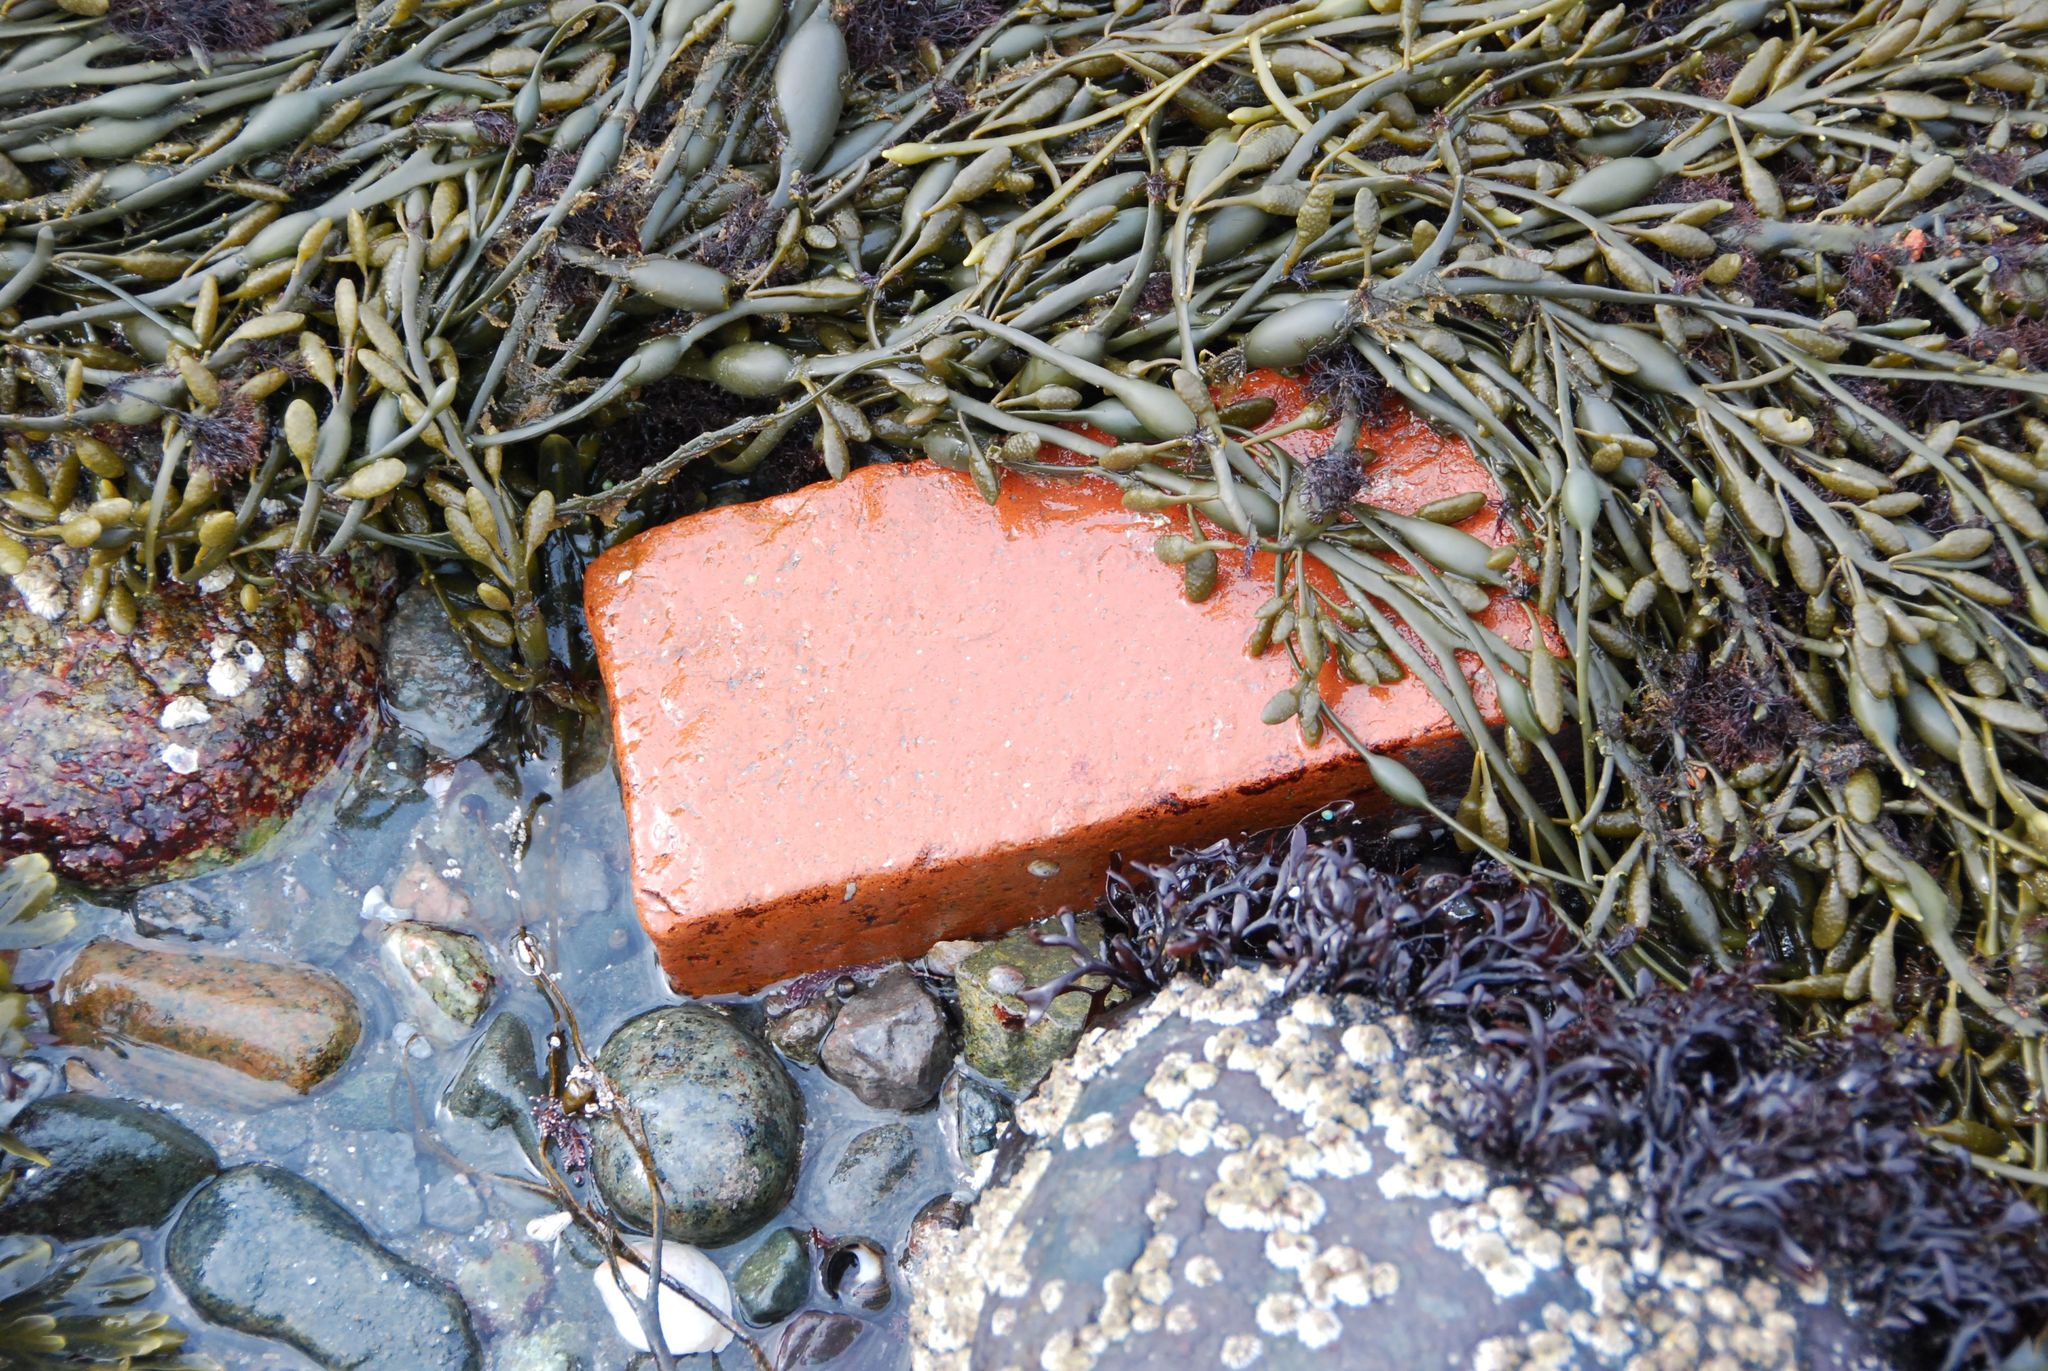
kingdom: Plantae
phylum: Rhodophyta
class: Florideophyceae
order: Gigartinales
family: Gigartinaceae
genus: Chondrus
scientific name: Chondrus crispus
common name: Carrageen
